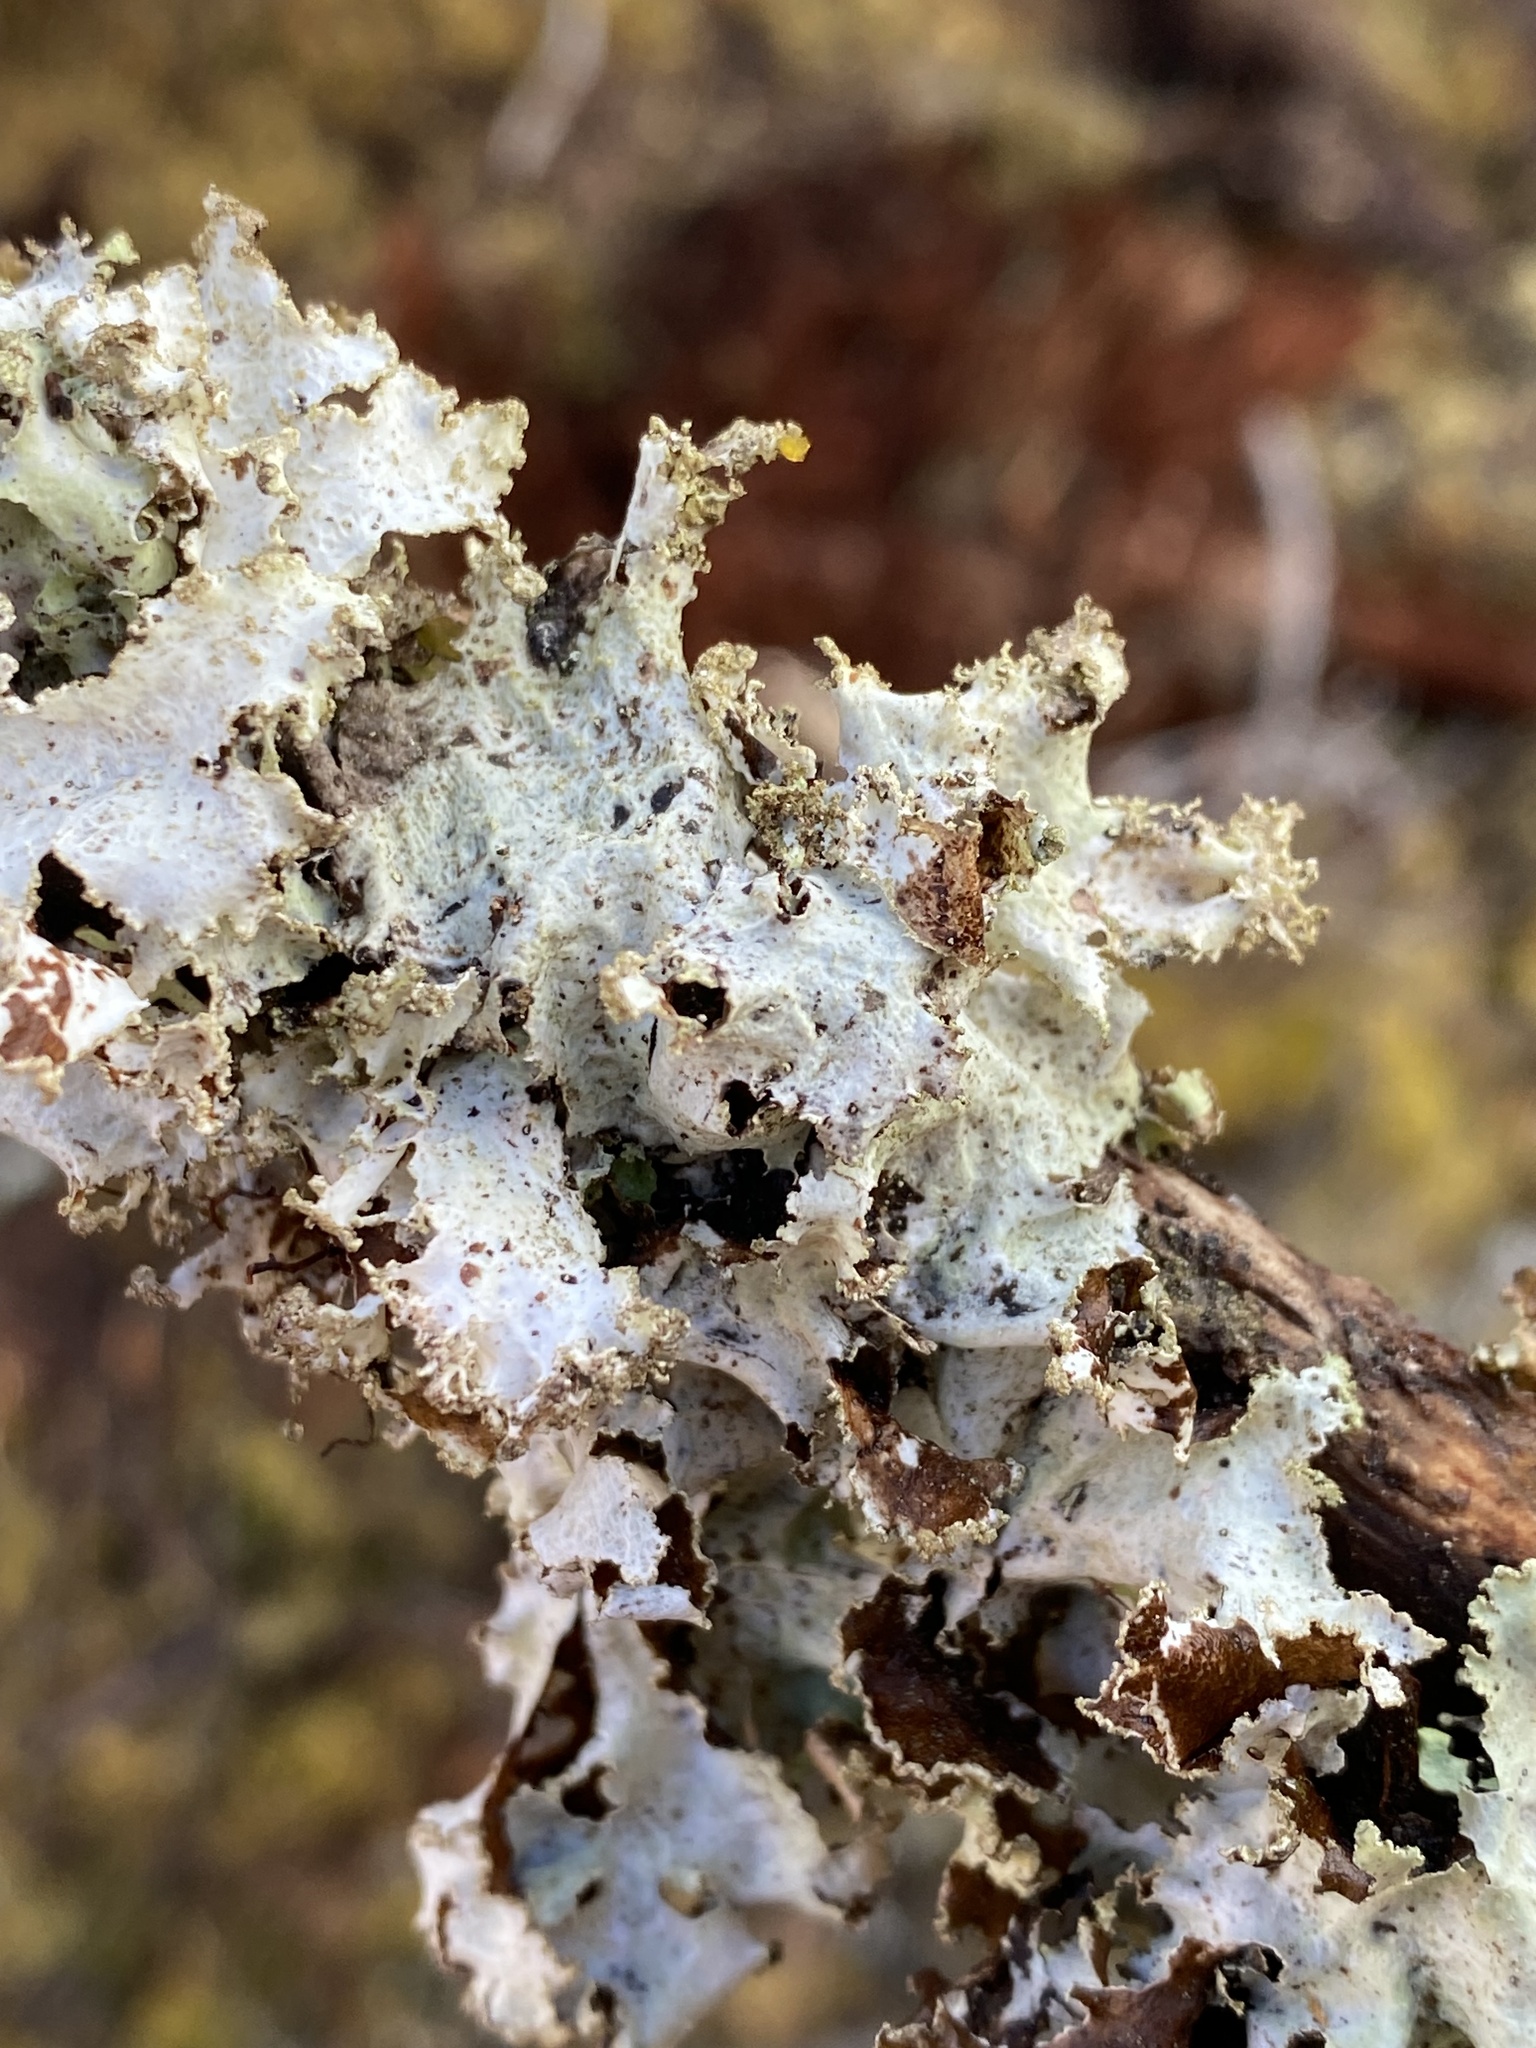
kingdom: Fungi
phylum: Ascomycota
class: Lecanoromycetes
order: Lecanorales
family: Parmeliaceae
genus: Platismatia
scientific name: Platismatia glauca
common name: Varied rag lichen
